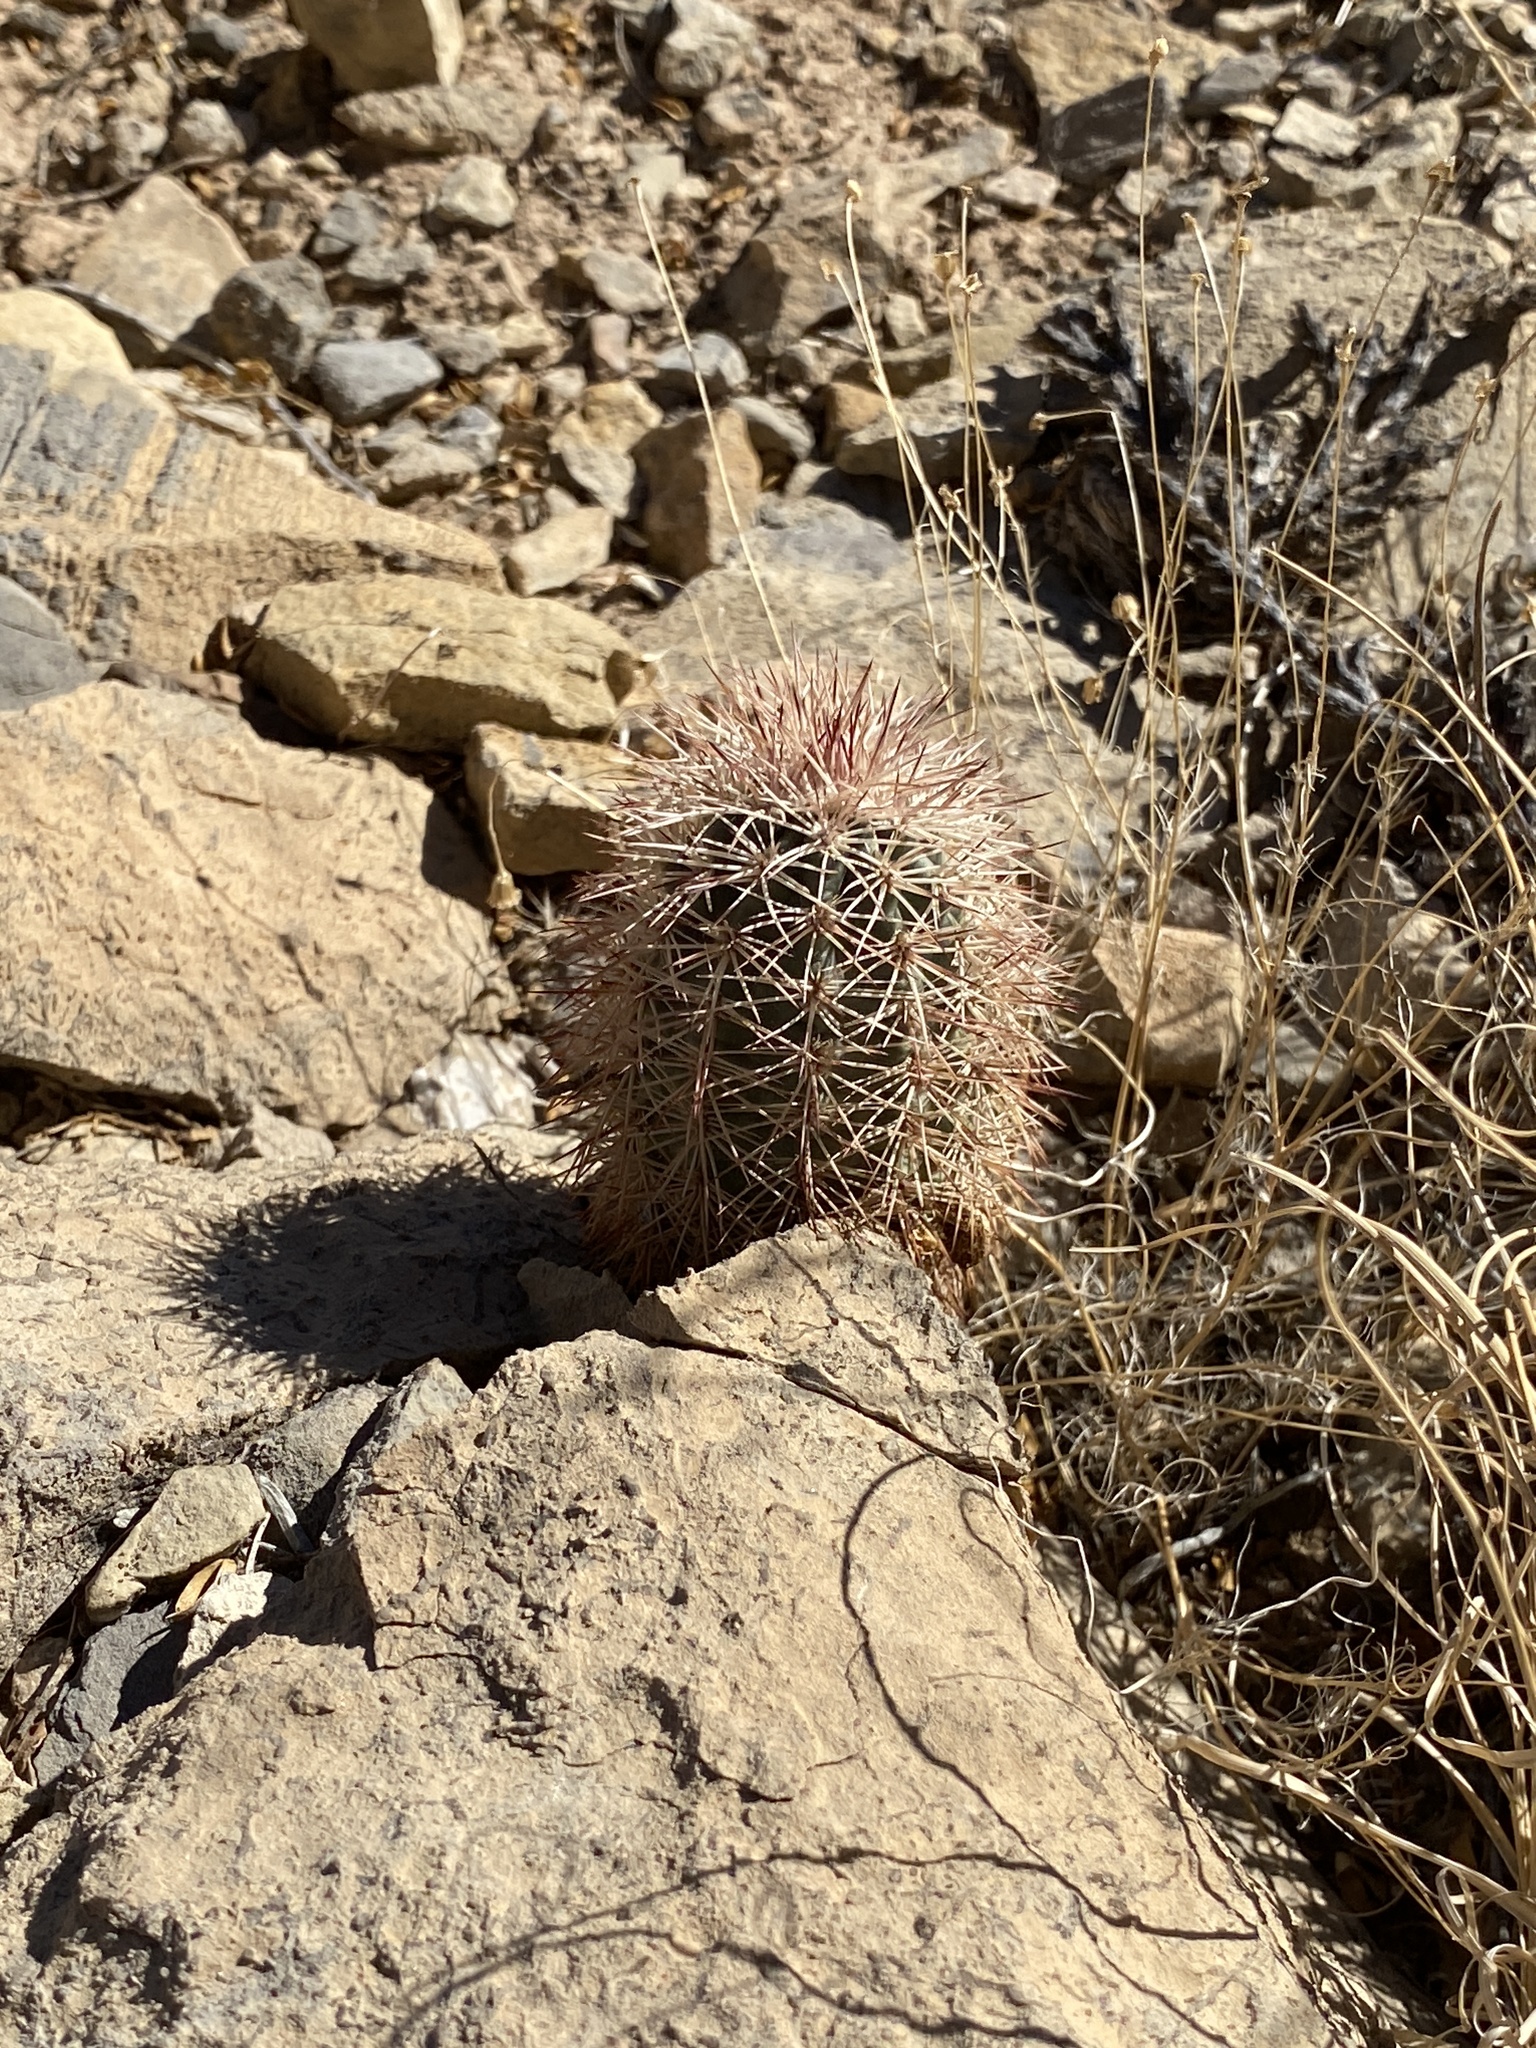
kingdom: Plantae
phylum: Tracheophyta
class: Magnoliopsida
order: Caryophyllales
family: Cactaceae
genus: Echinocereus
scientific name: Echinocereus dasyacanthus
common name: Spiny hedgehog cactus
